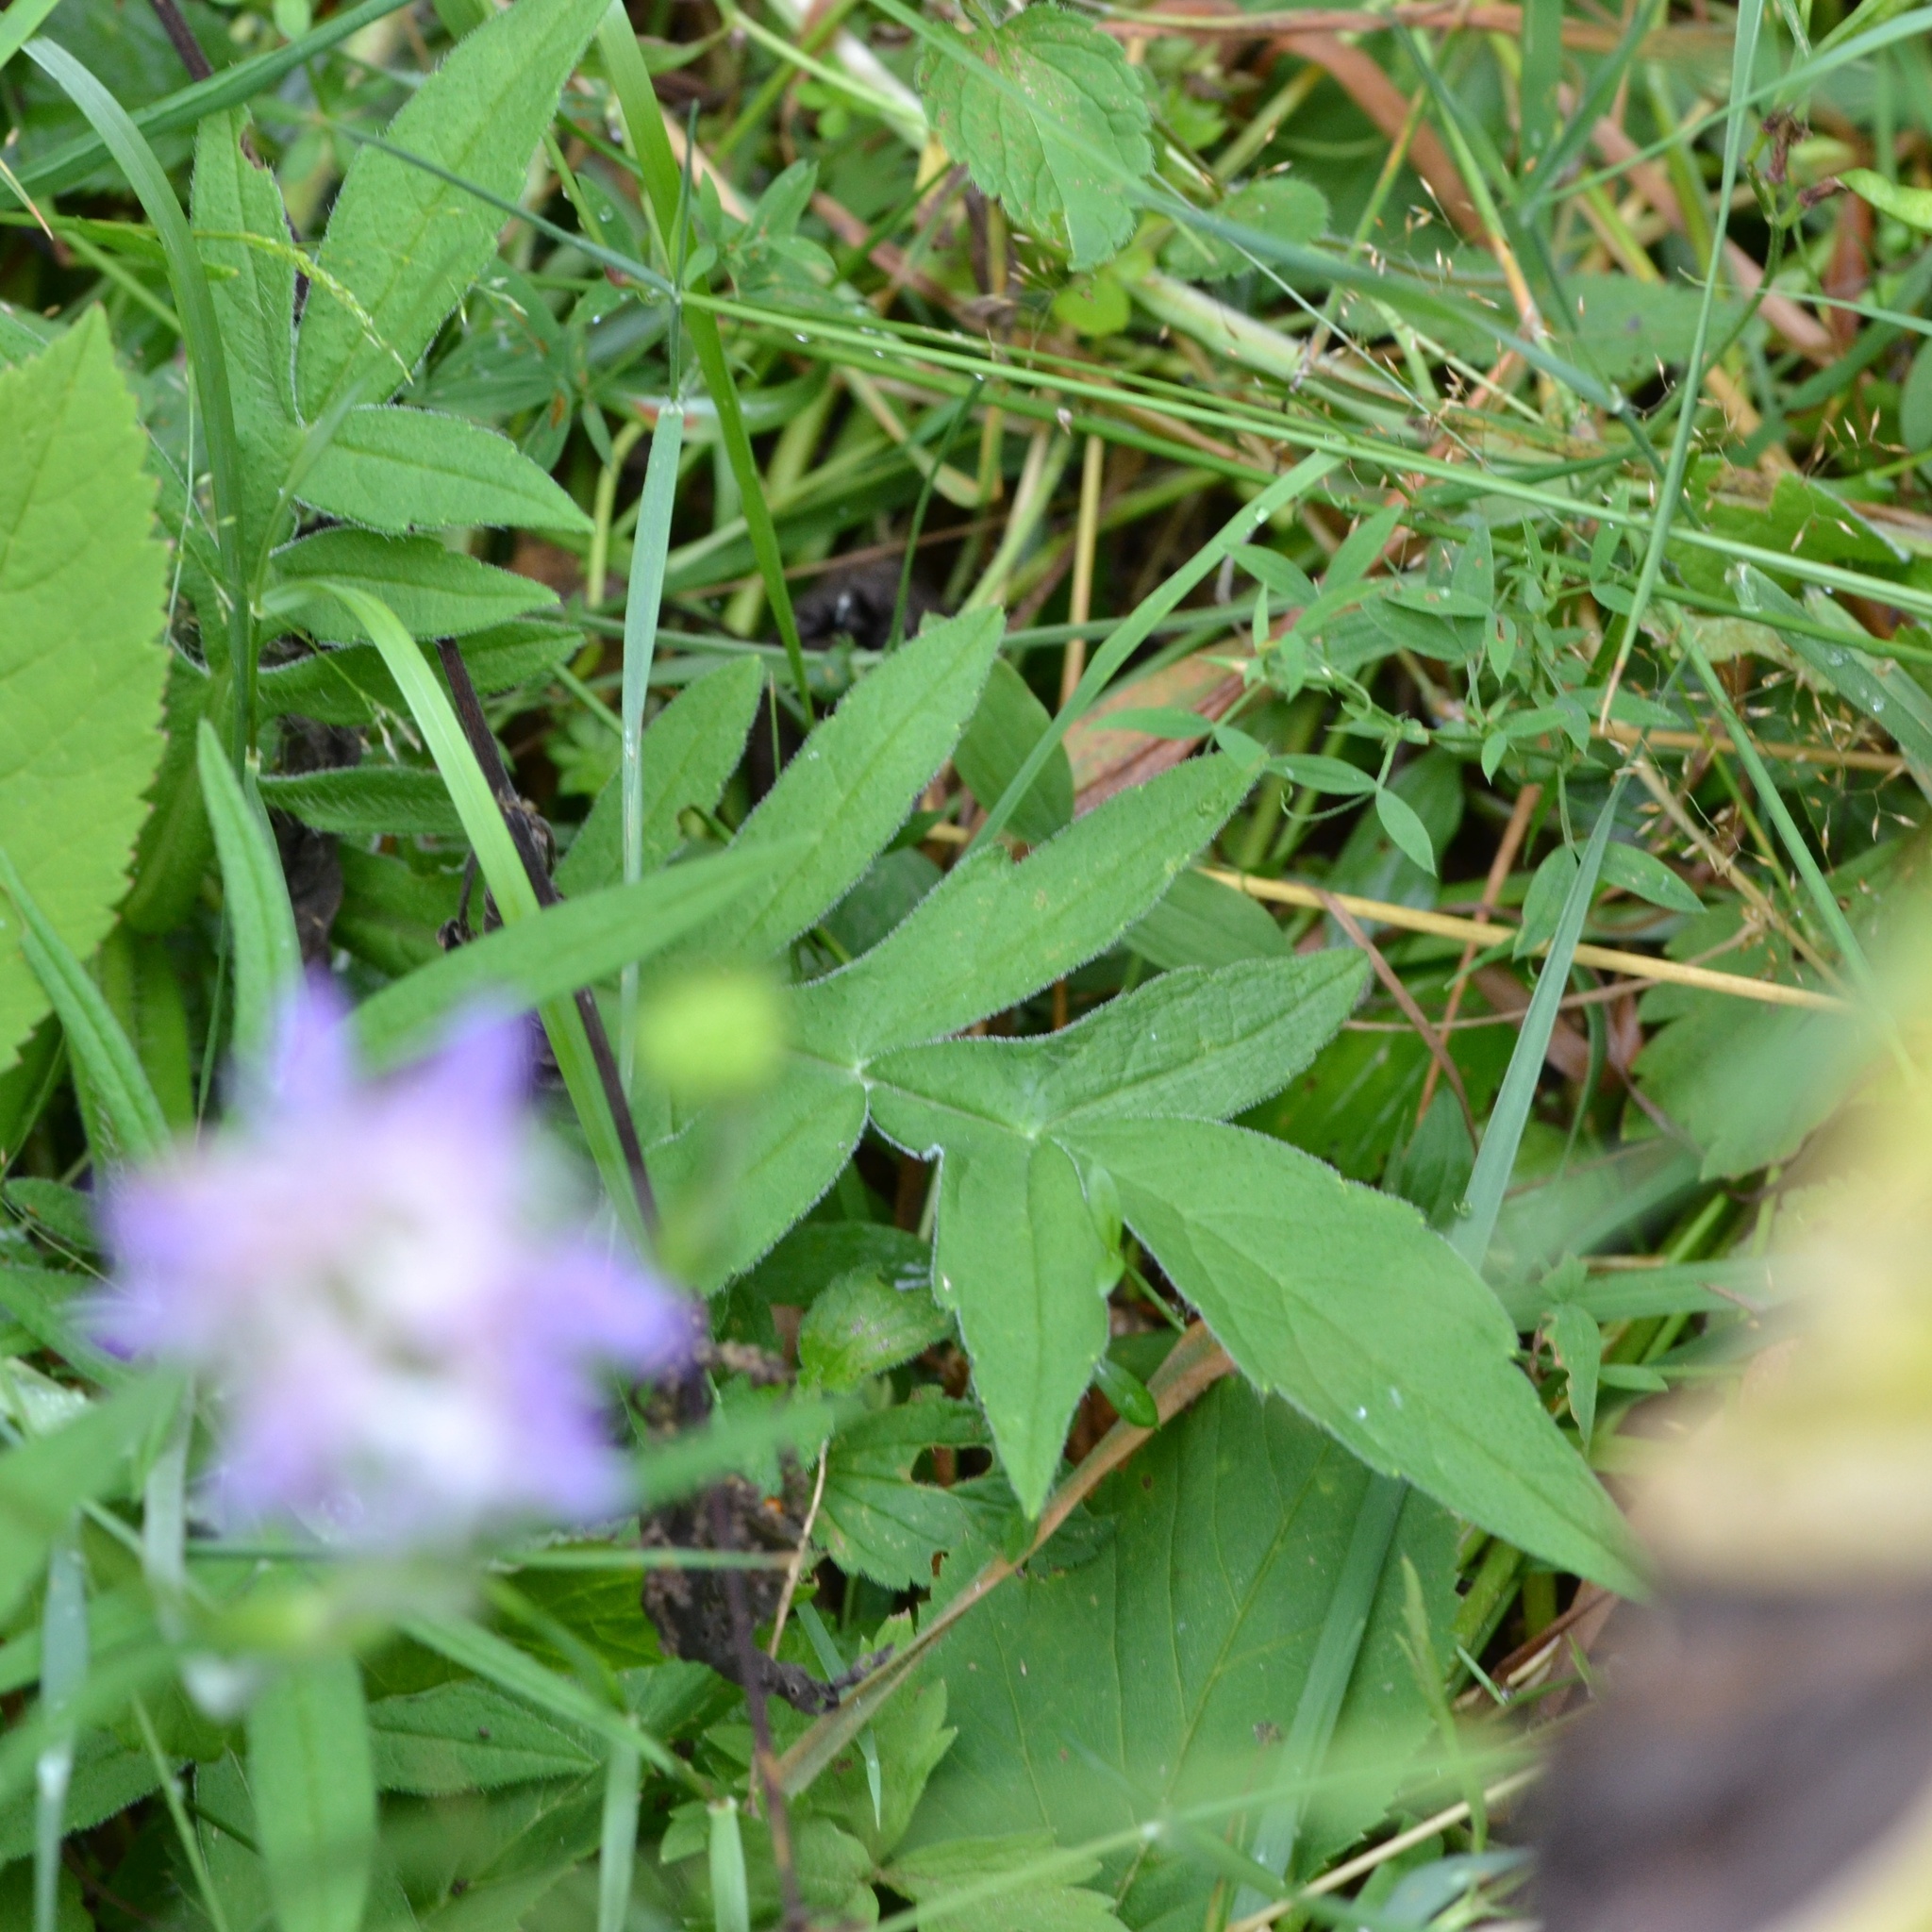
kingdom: Plantae
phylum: Tracheophyta
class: Magnoliopsida
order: Dipsacales
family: Caprifoliaceae
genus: Knautia
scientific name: Knautia arvensis
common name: Field scabiosa
